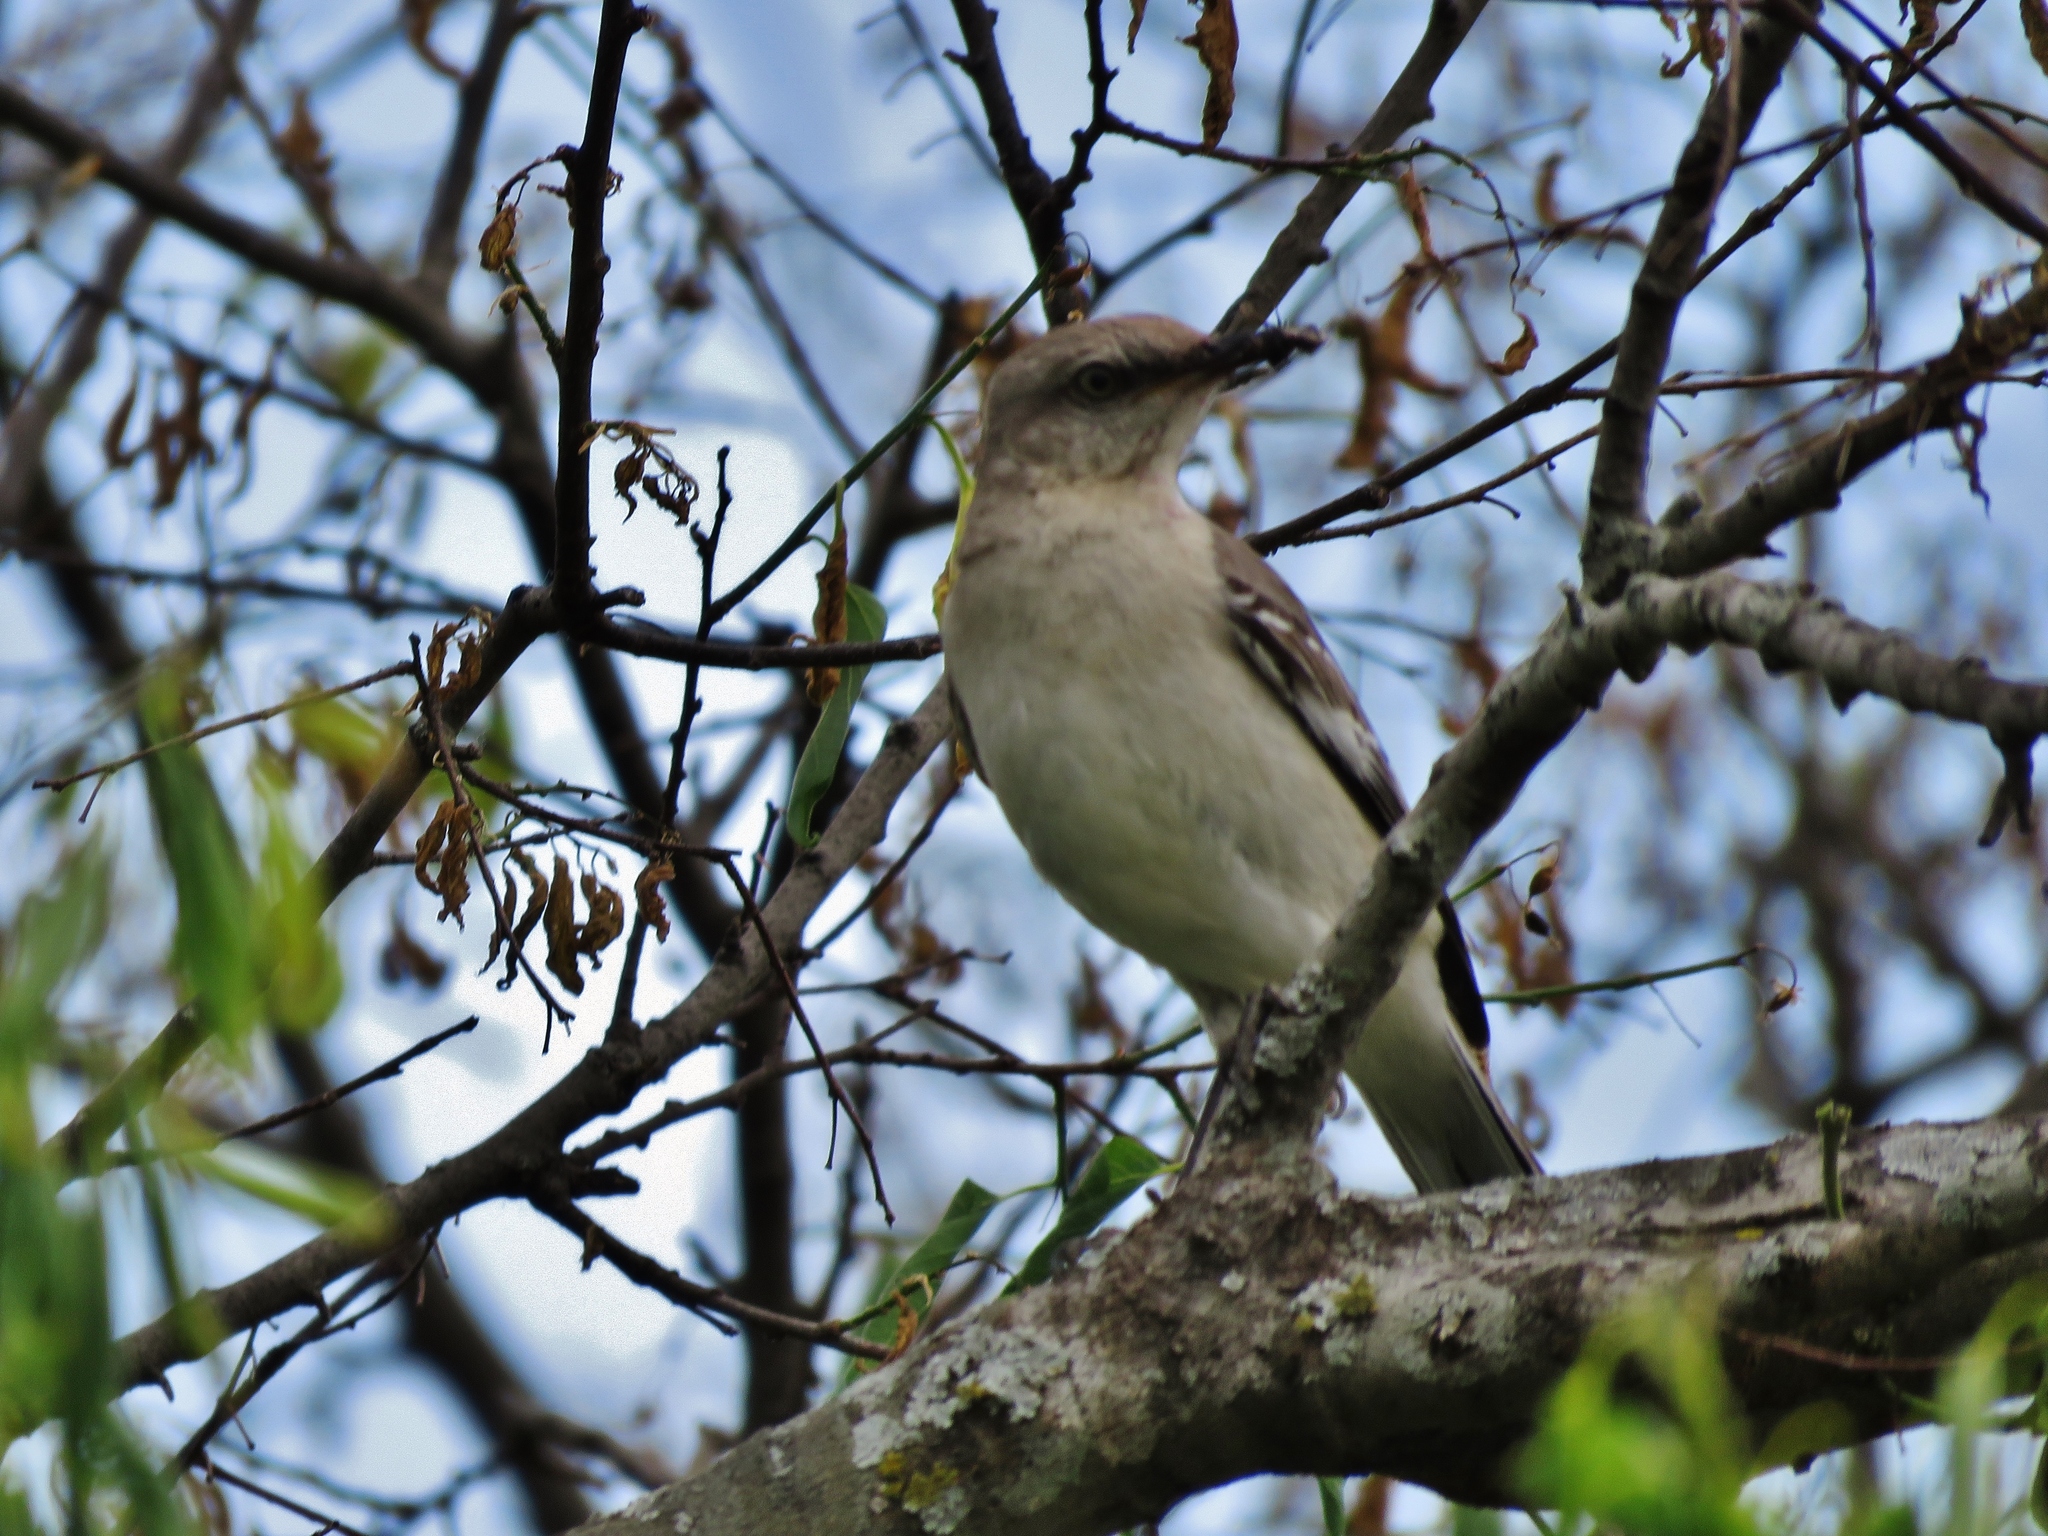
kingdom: Animalia
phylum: Chordata
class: Aves
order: Passeriformes
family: Mimidae
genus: Mimus
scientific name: Mimus polyglottos
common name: Northern mockingbird
